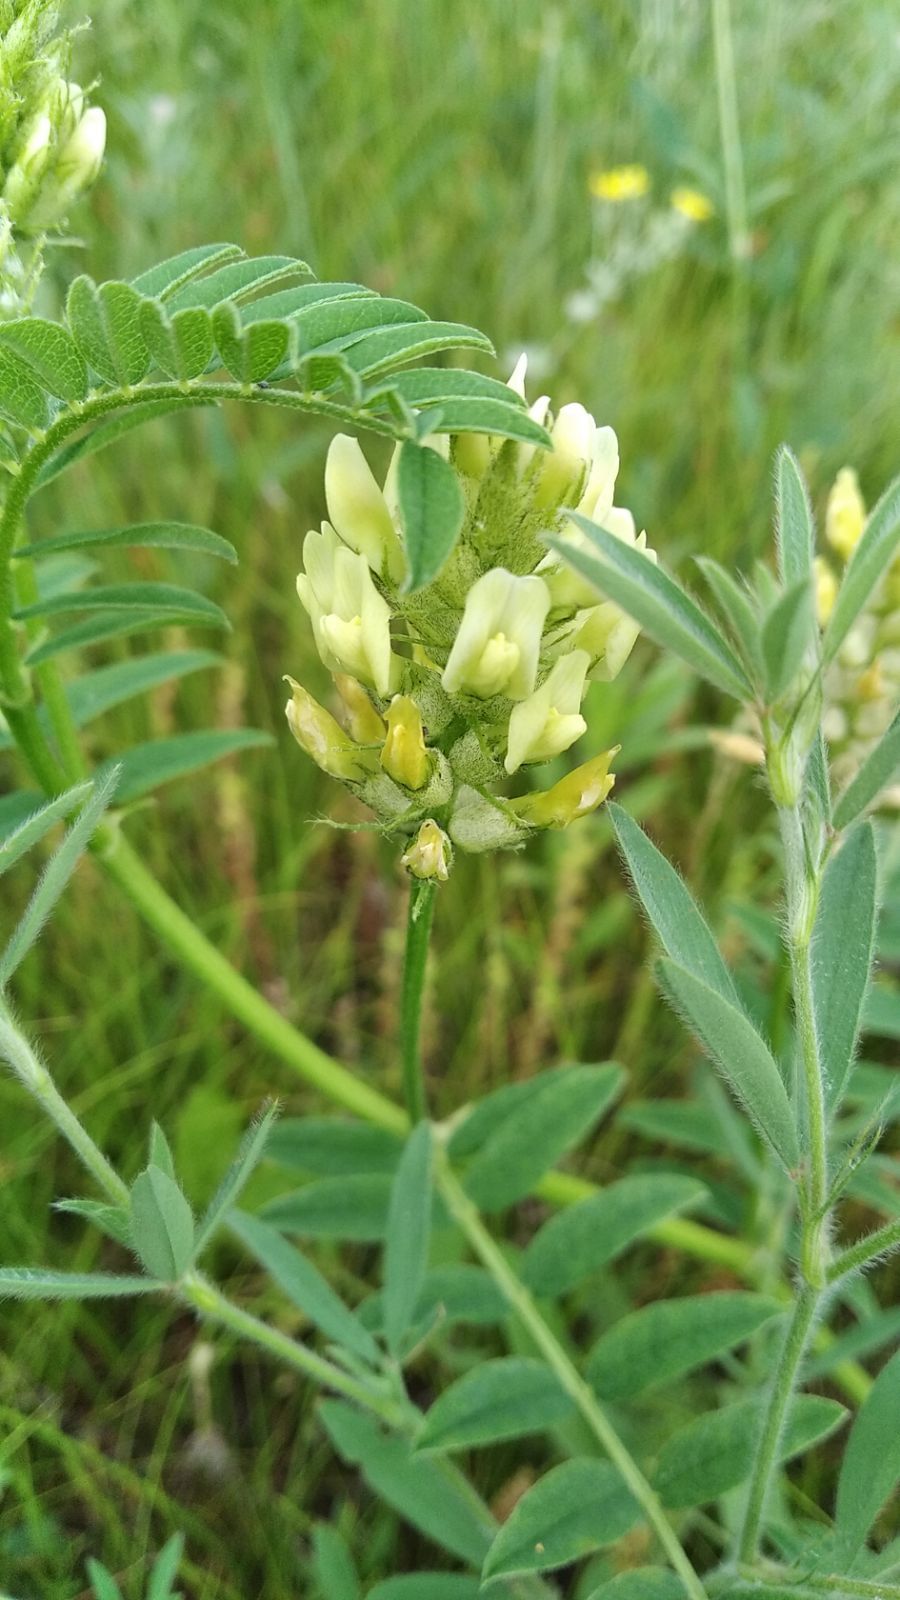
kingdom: Plantae
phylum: Tracheophyta
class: Magnoliopsida
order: Fabales
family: Fabaceae
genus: Astragalus
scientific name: Astragalus cicer
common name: Chick-pea milk-vetch
